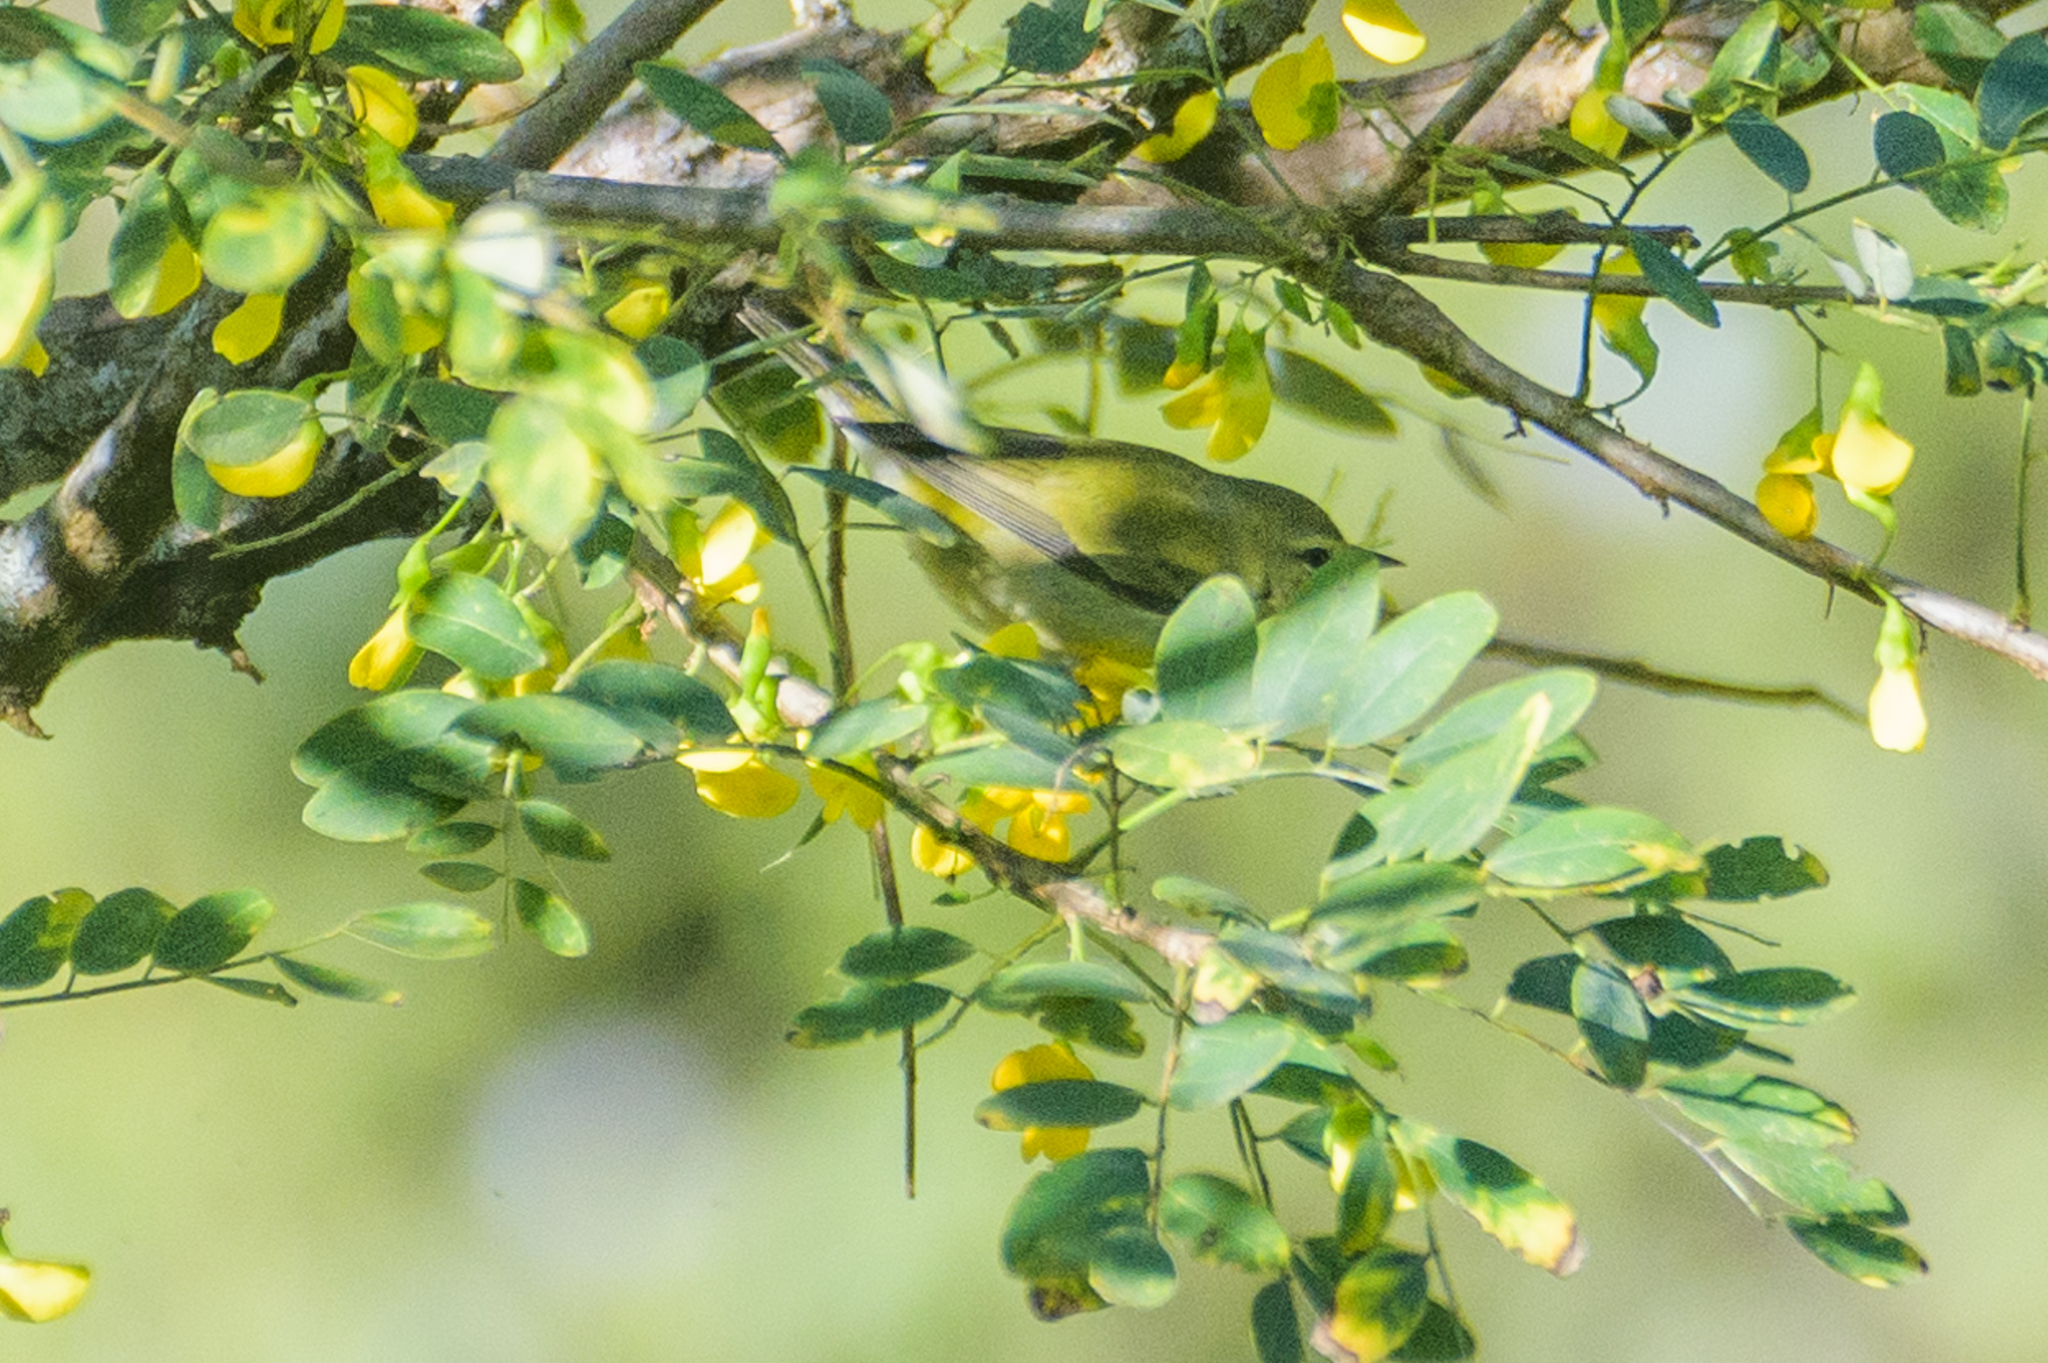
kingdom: Animalia
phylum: Chordata
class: Aves
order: Passeriformes
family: Parulidae
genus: Leiothlypis
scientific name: Leiothlypis peregrina
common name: Tennessee warbler
